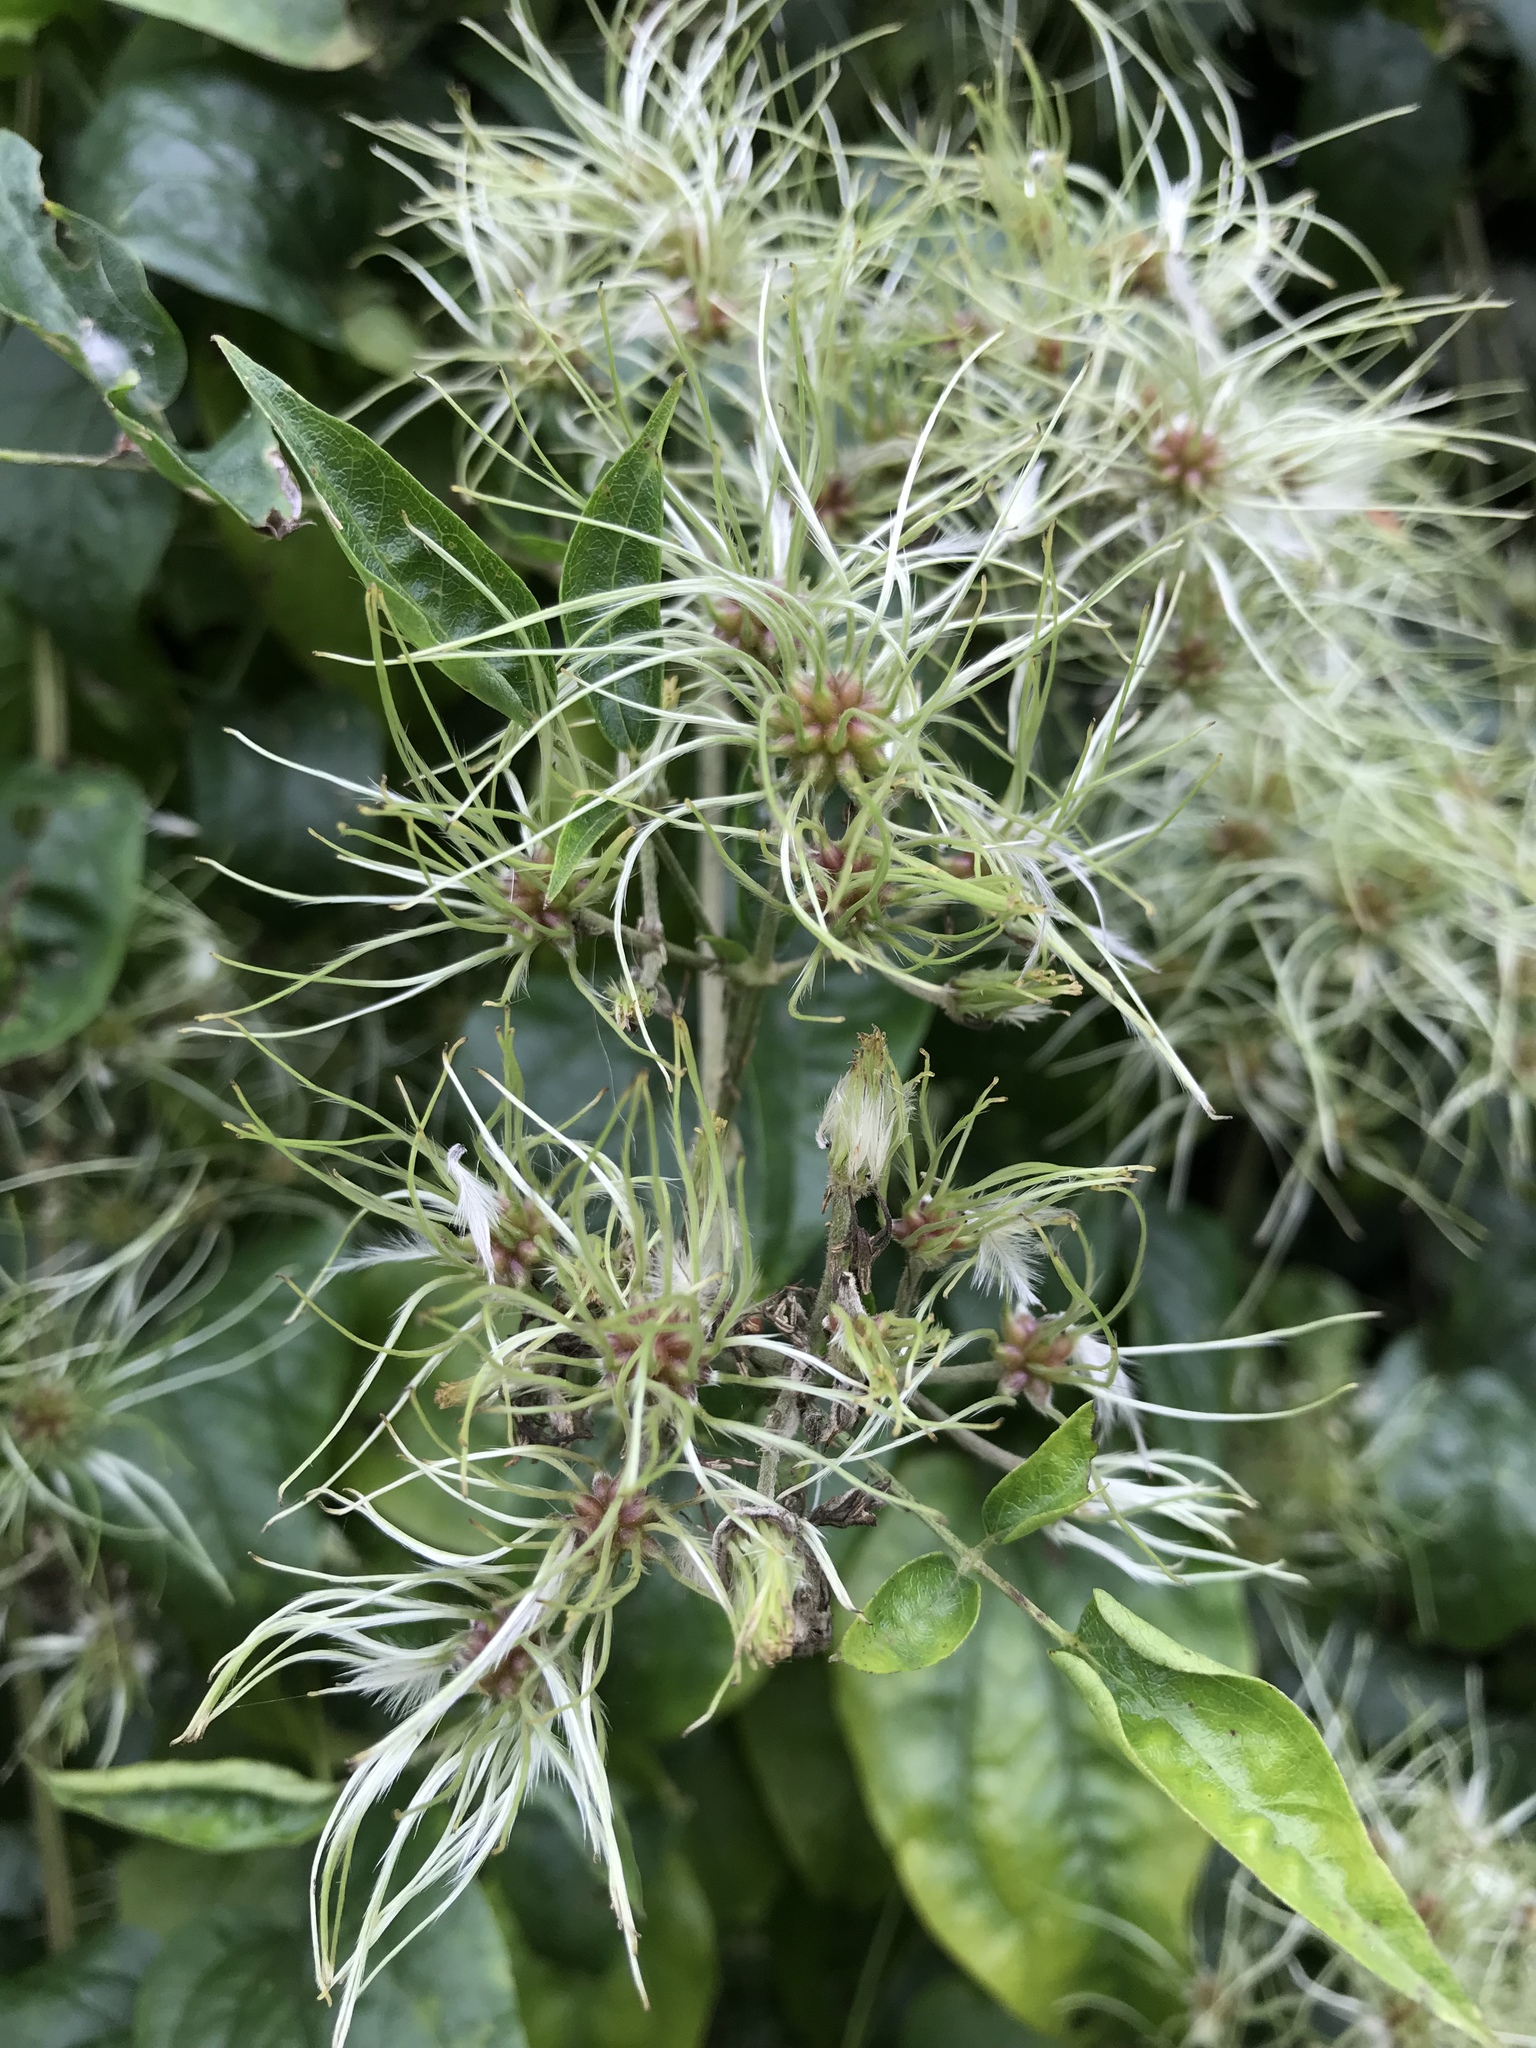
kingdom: Plantae
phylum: Tracheophyta
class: Magnoliopsida
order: Ranunculales
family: Ranunculaceae
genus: Clematis
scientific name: Clematis vitalba
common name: Evergreen clematis
